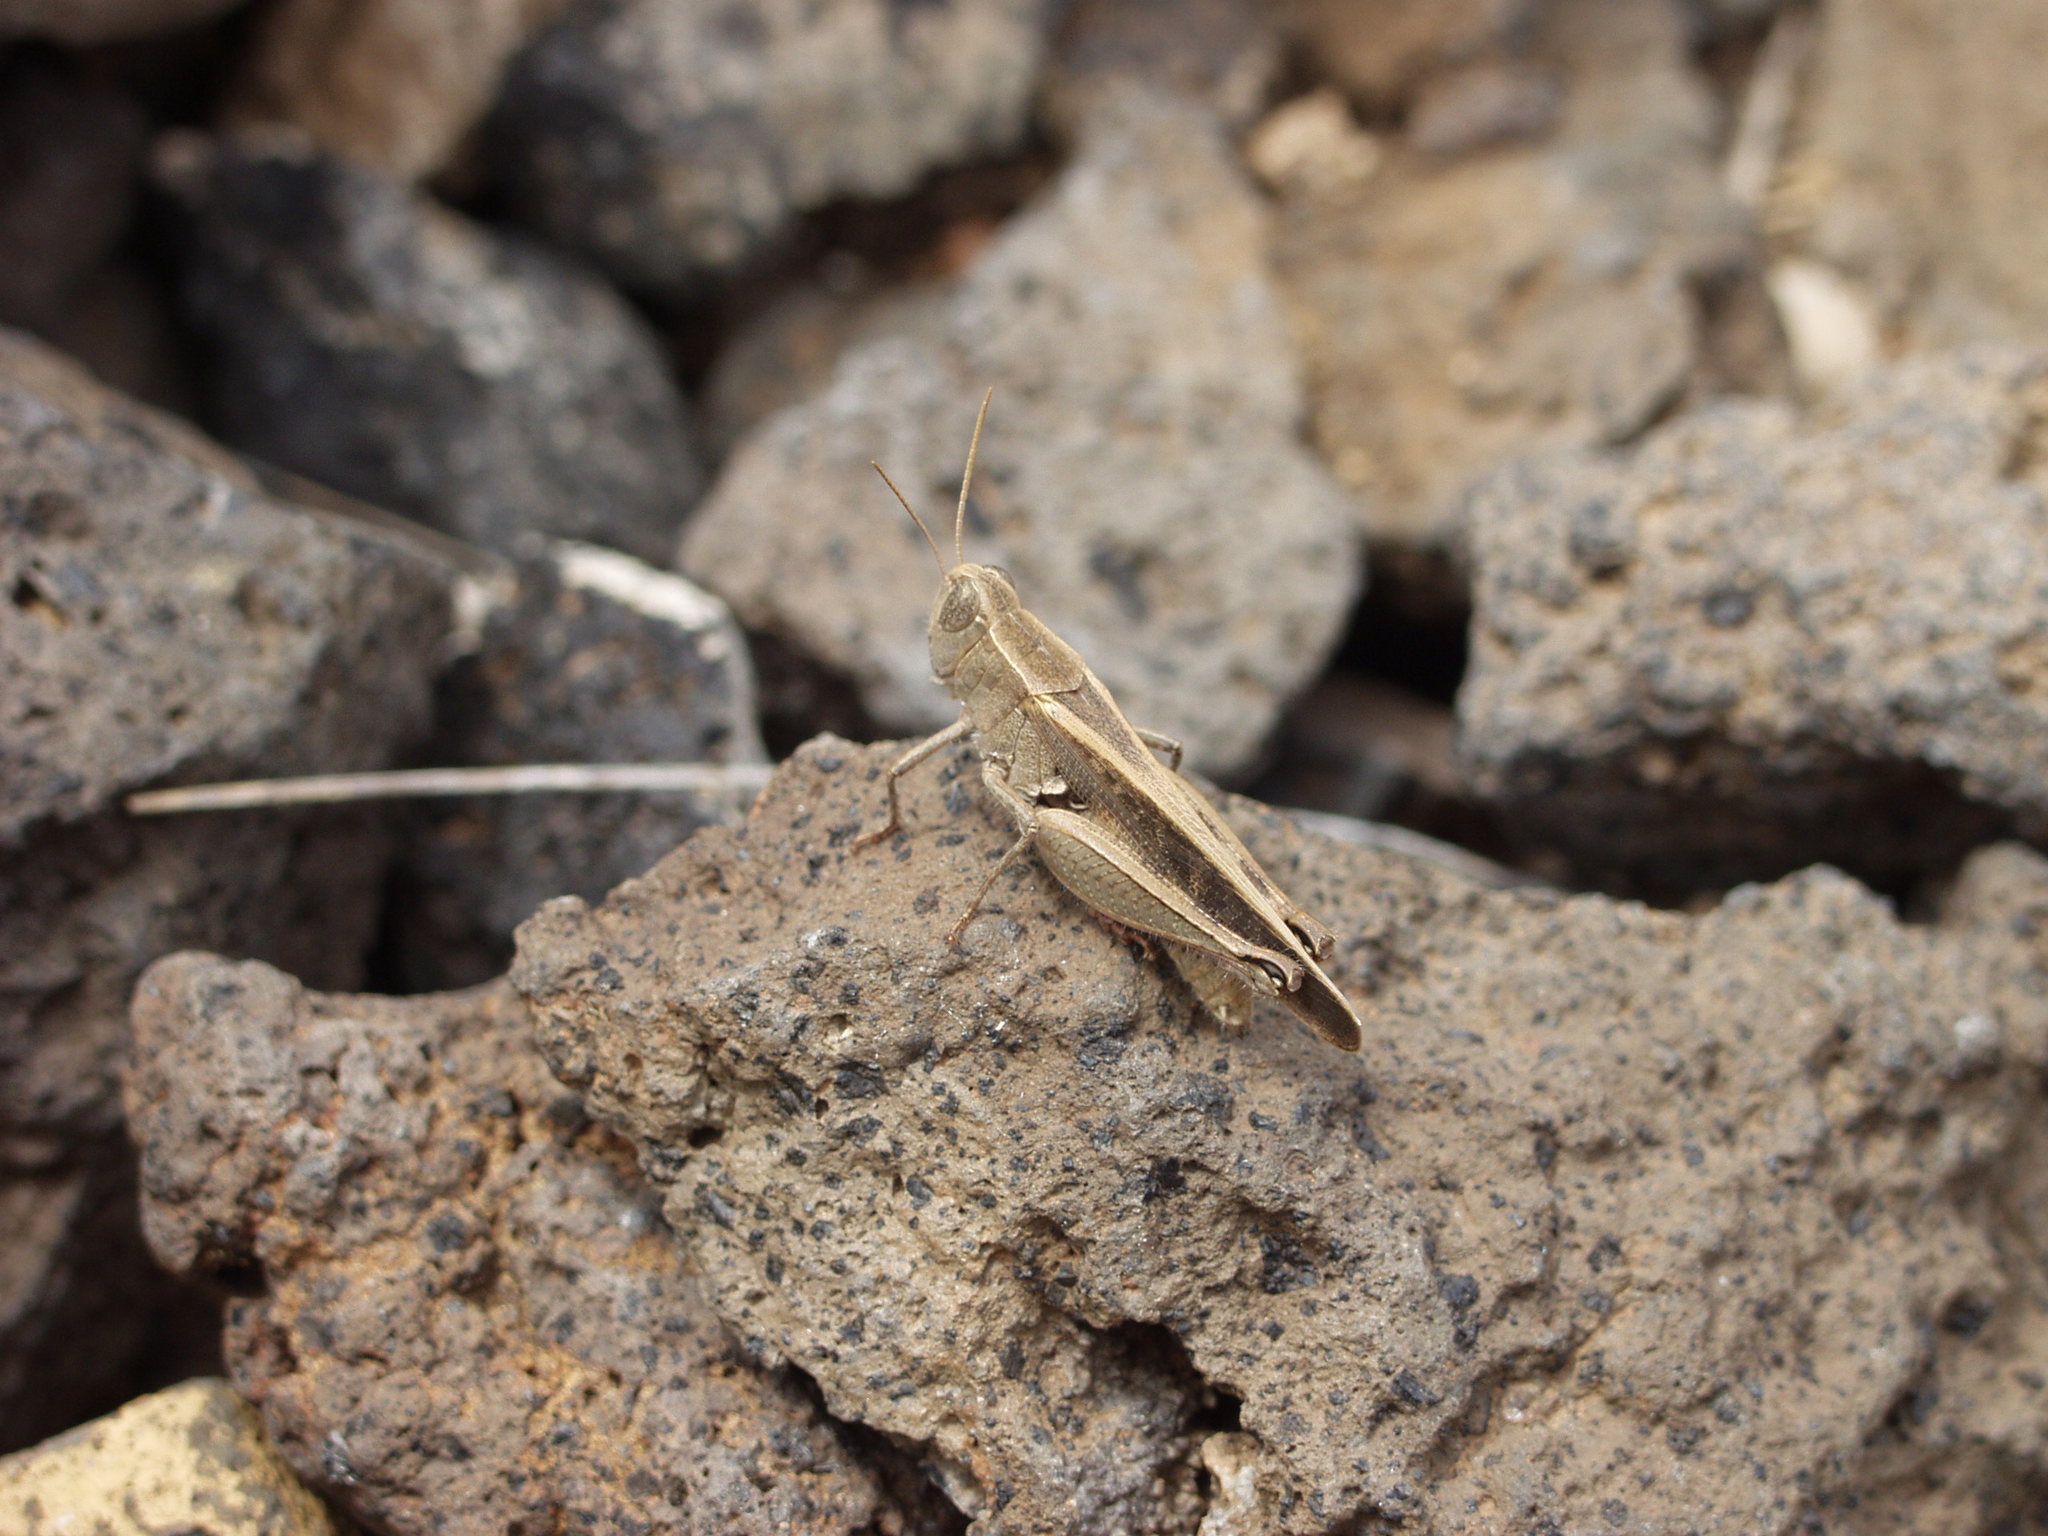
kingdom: Animalia
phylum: Arthropoda
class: Insecta
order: Orthoptera
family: Acrididae
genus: Calliptamus
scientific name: Calliptamus plebeius
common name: Canarian pincer grasshopper
